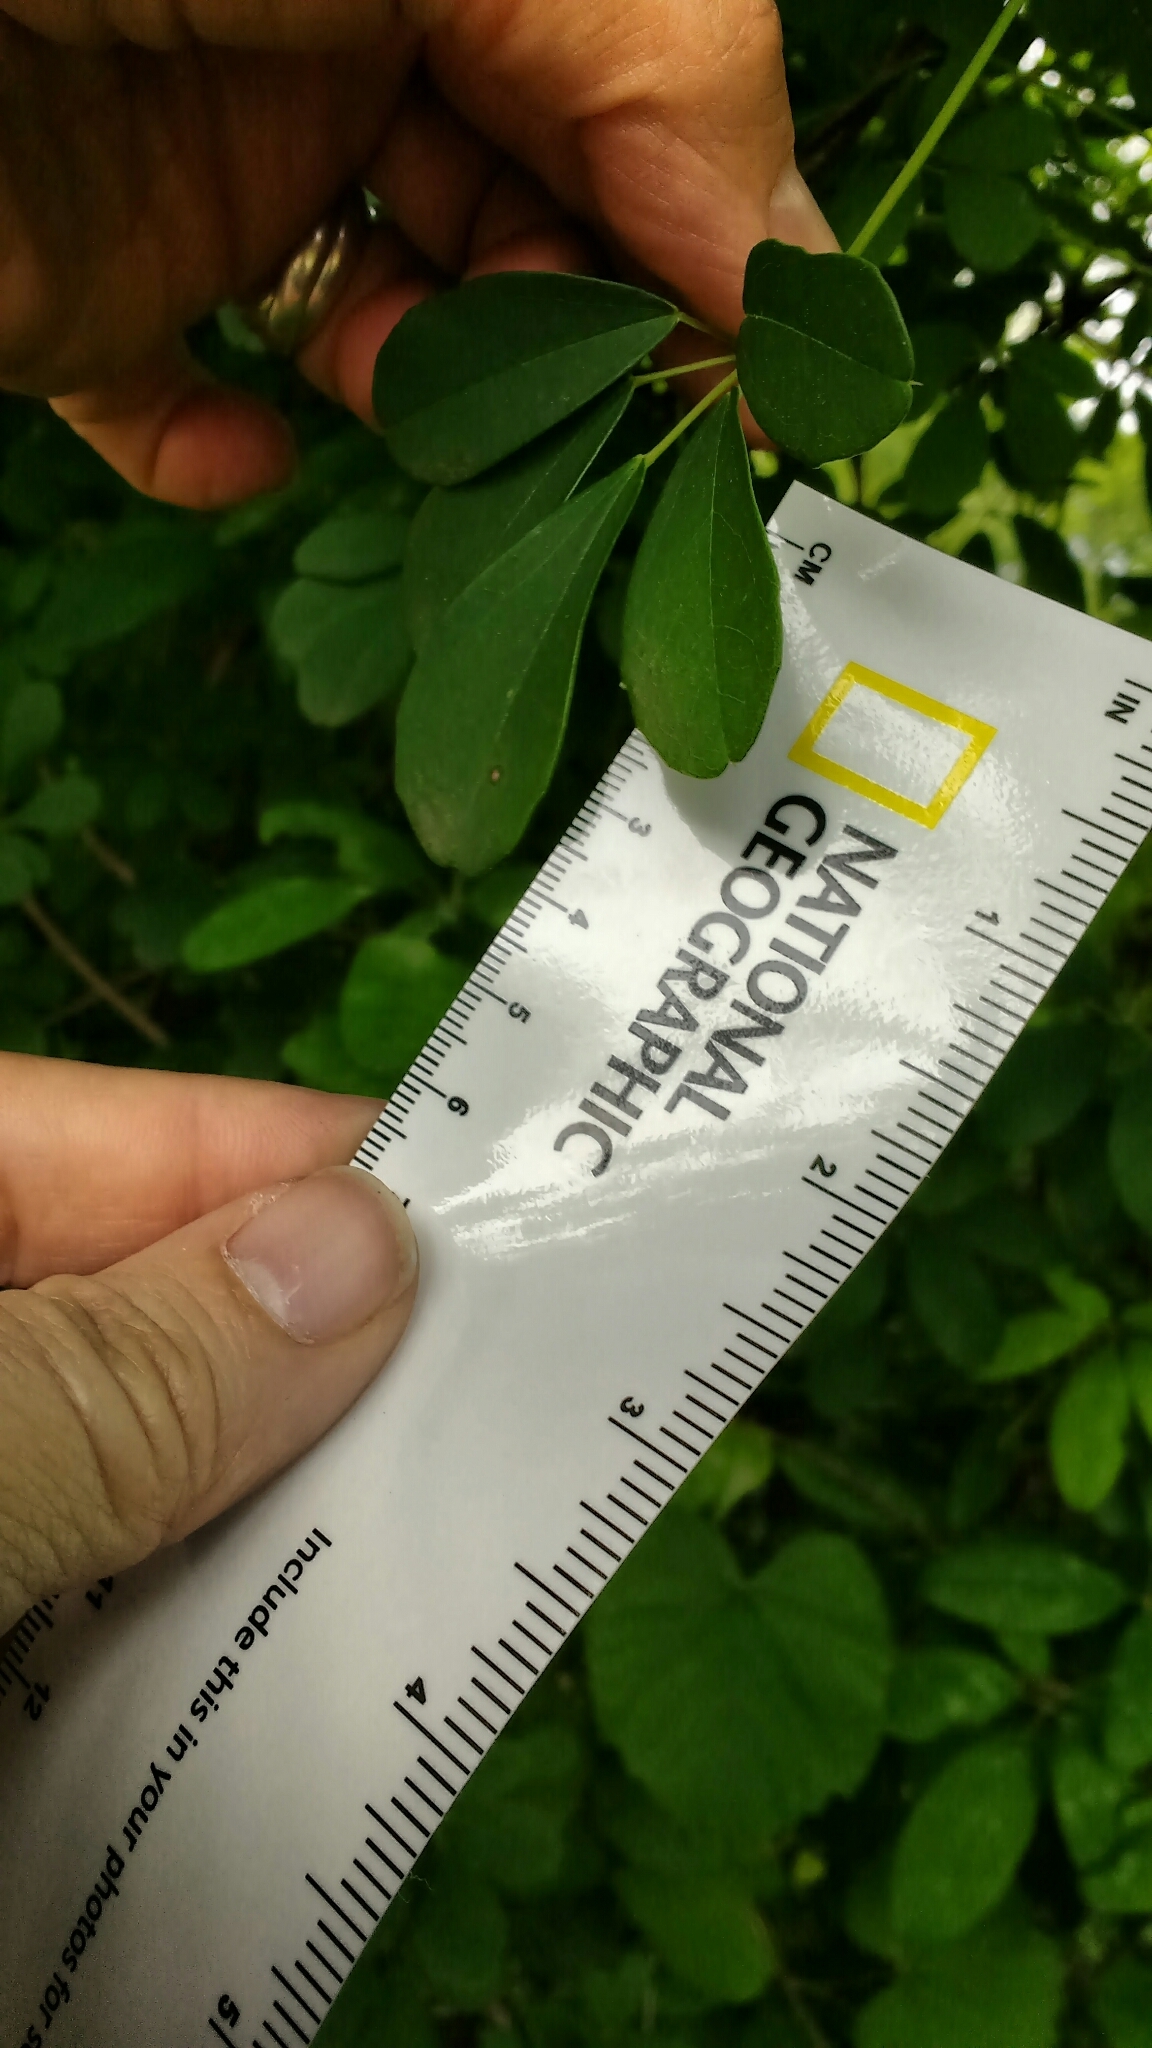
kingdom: Plantae
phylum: Tracheophyta
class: Magnoliopsida
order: Ranunculales
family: Lardizabalaceae
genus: Akebia
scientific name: Akebia quinata
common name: Five-leaf akebia
